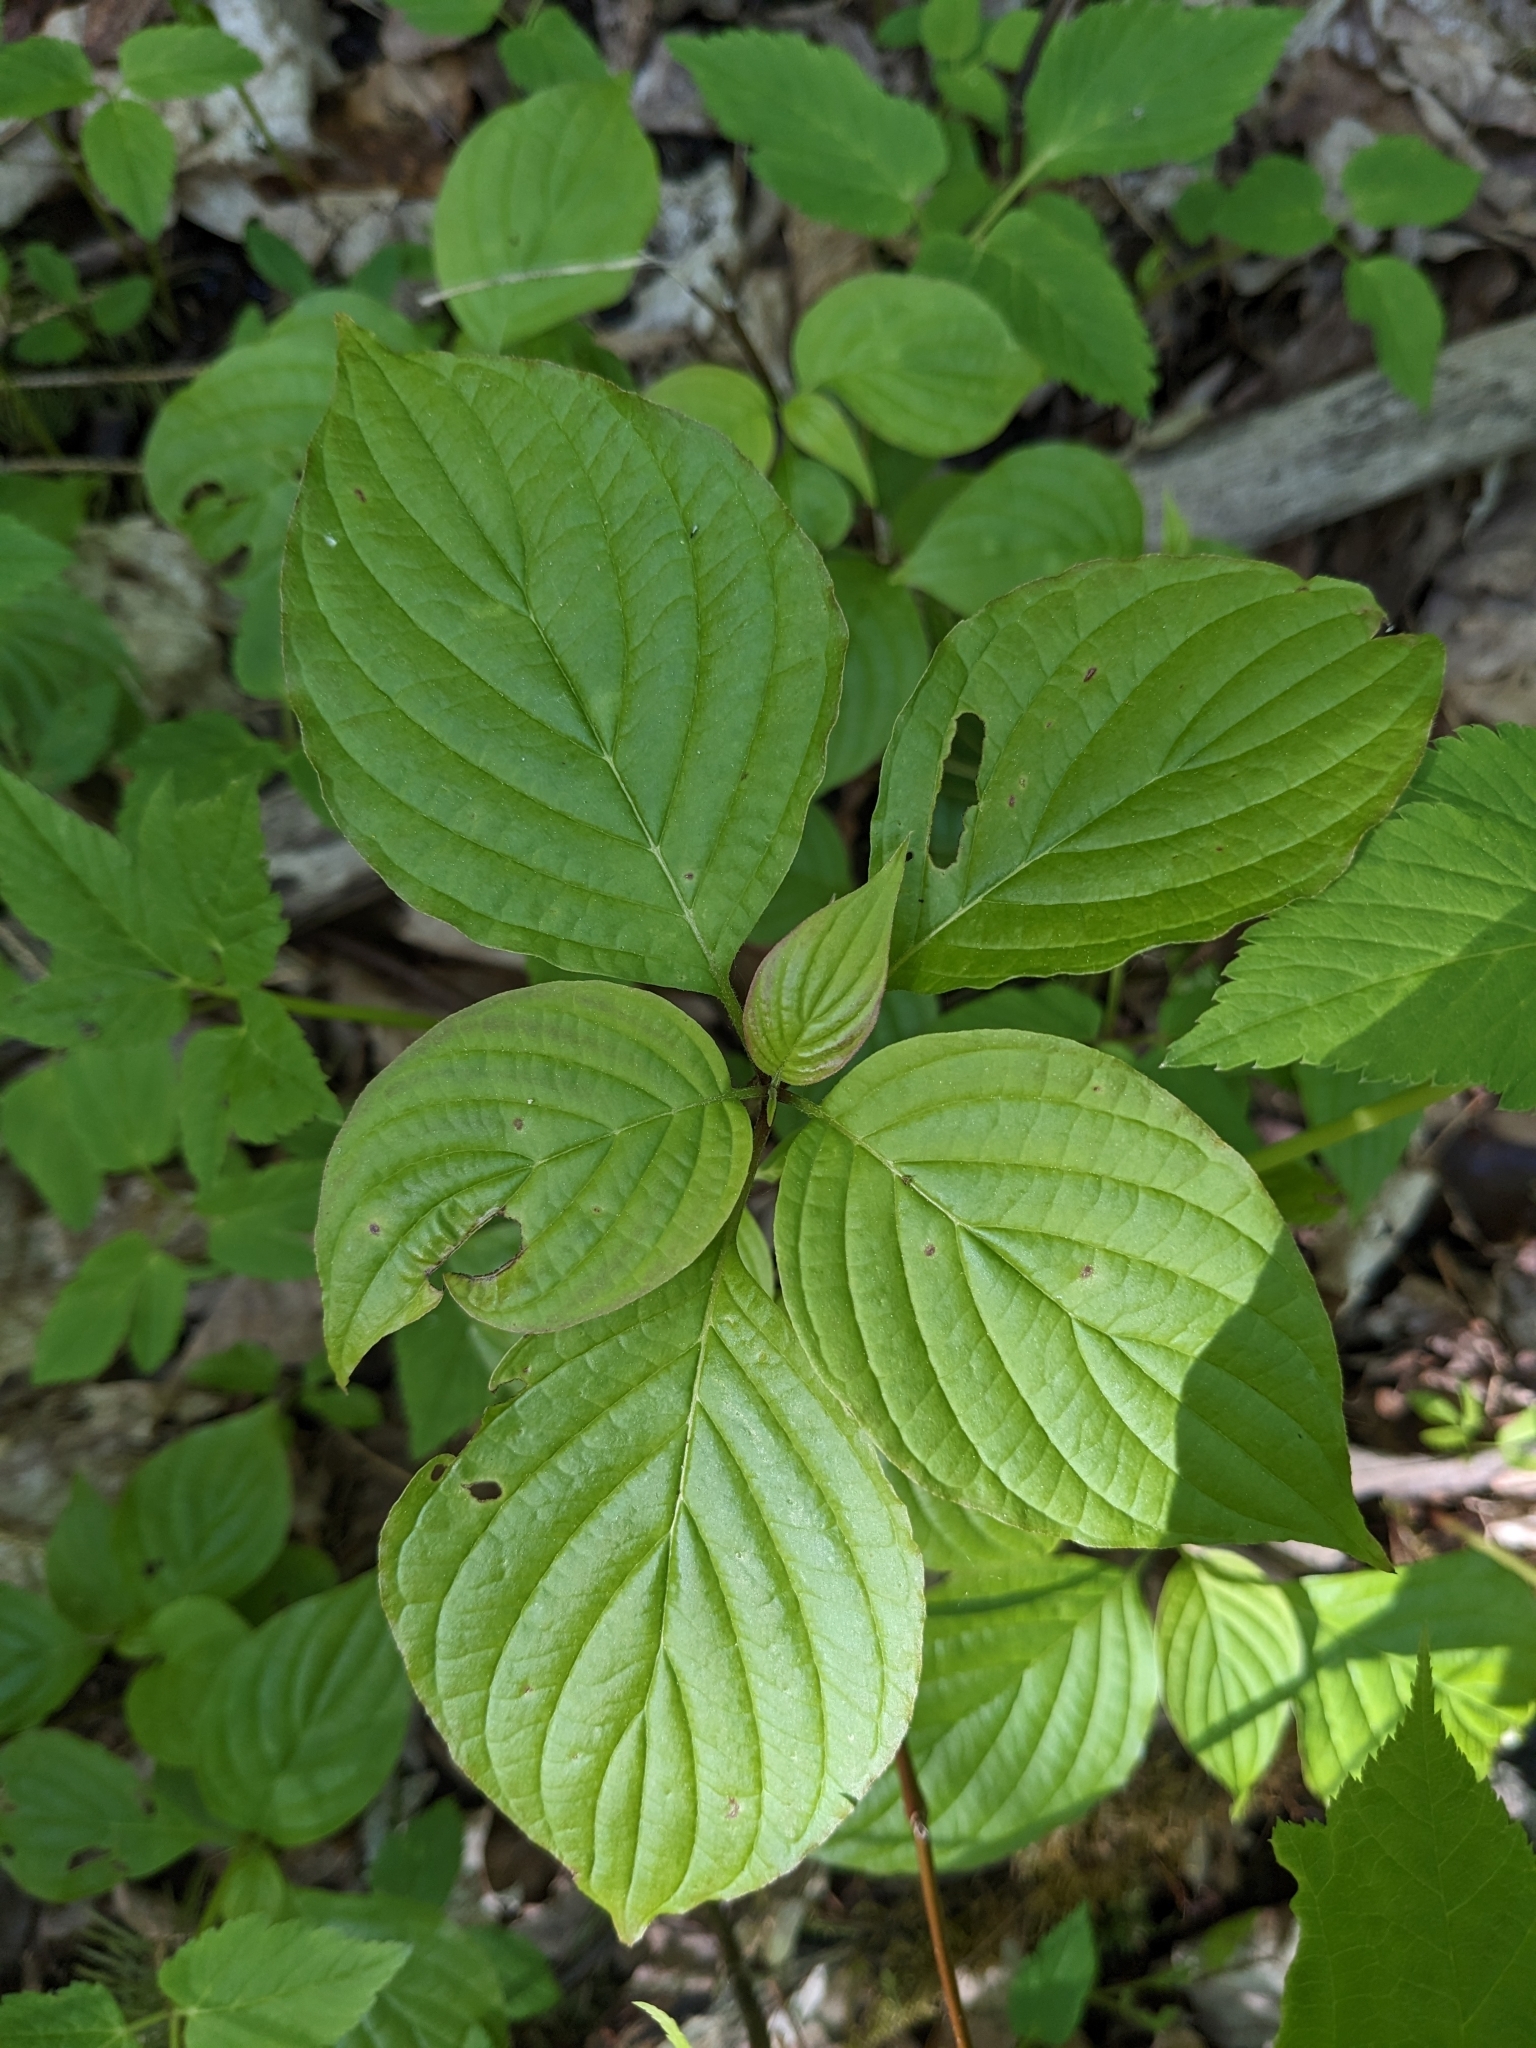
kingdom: Plantae
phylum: Tracheophyta
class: Magnoliopsida
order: Cornales
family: Cornaceae
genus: Cornus
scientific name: Cornus alternifolia
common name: Pagoda dogwood
